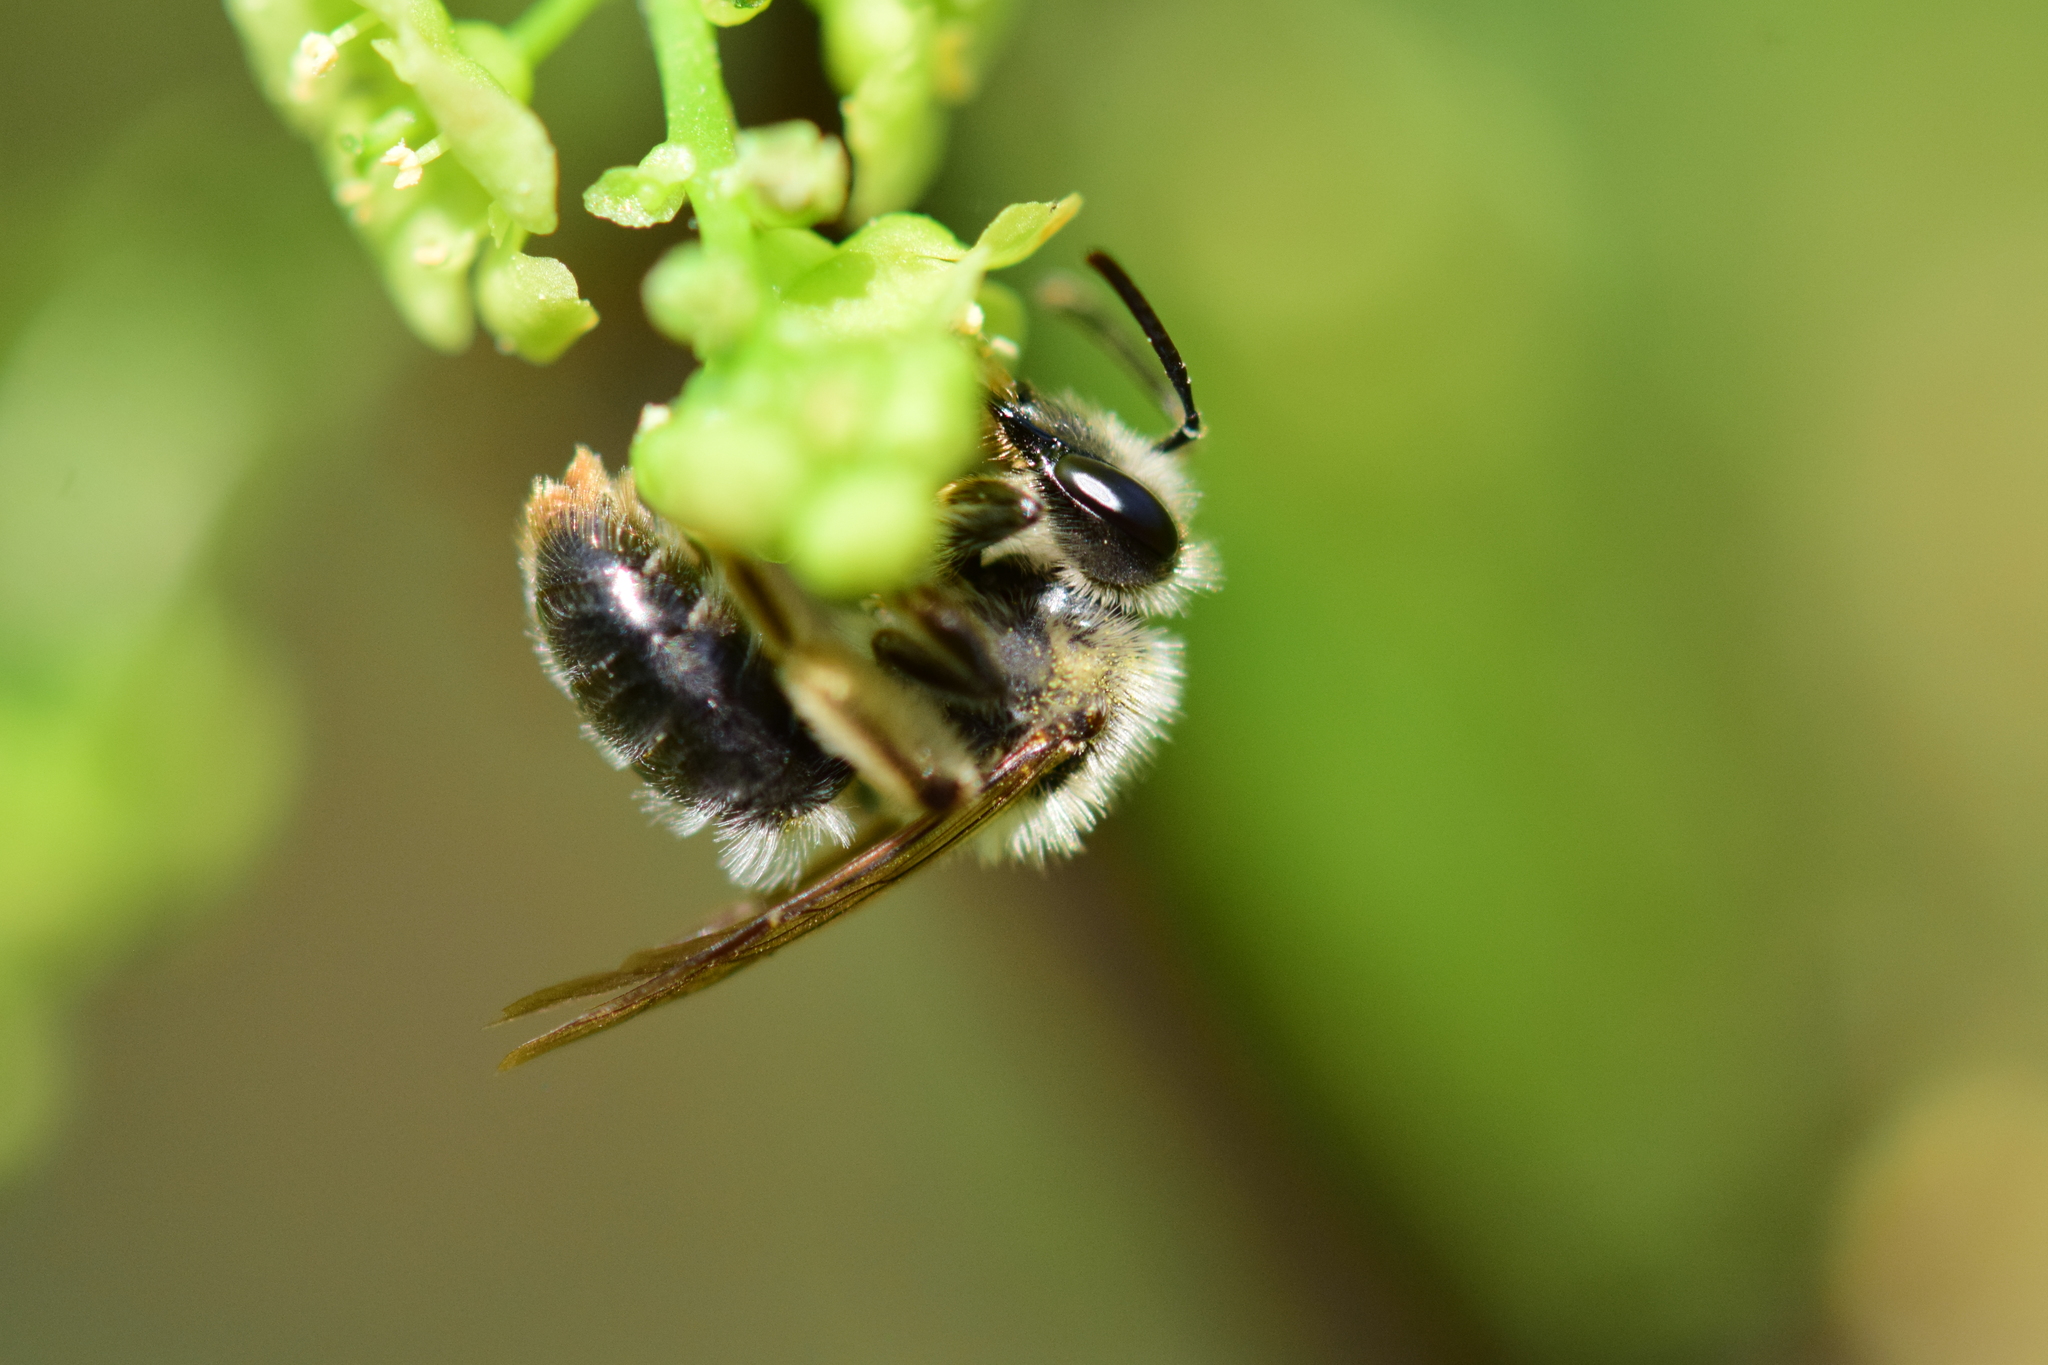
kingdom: Animalia
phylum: Arthropoda
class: Insecta
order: Hymenoptera
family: Andrenidae
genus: Andrena
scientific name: Andrena rufosignata
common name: Brown-fovea miner
